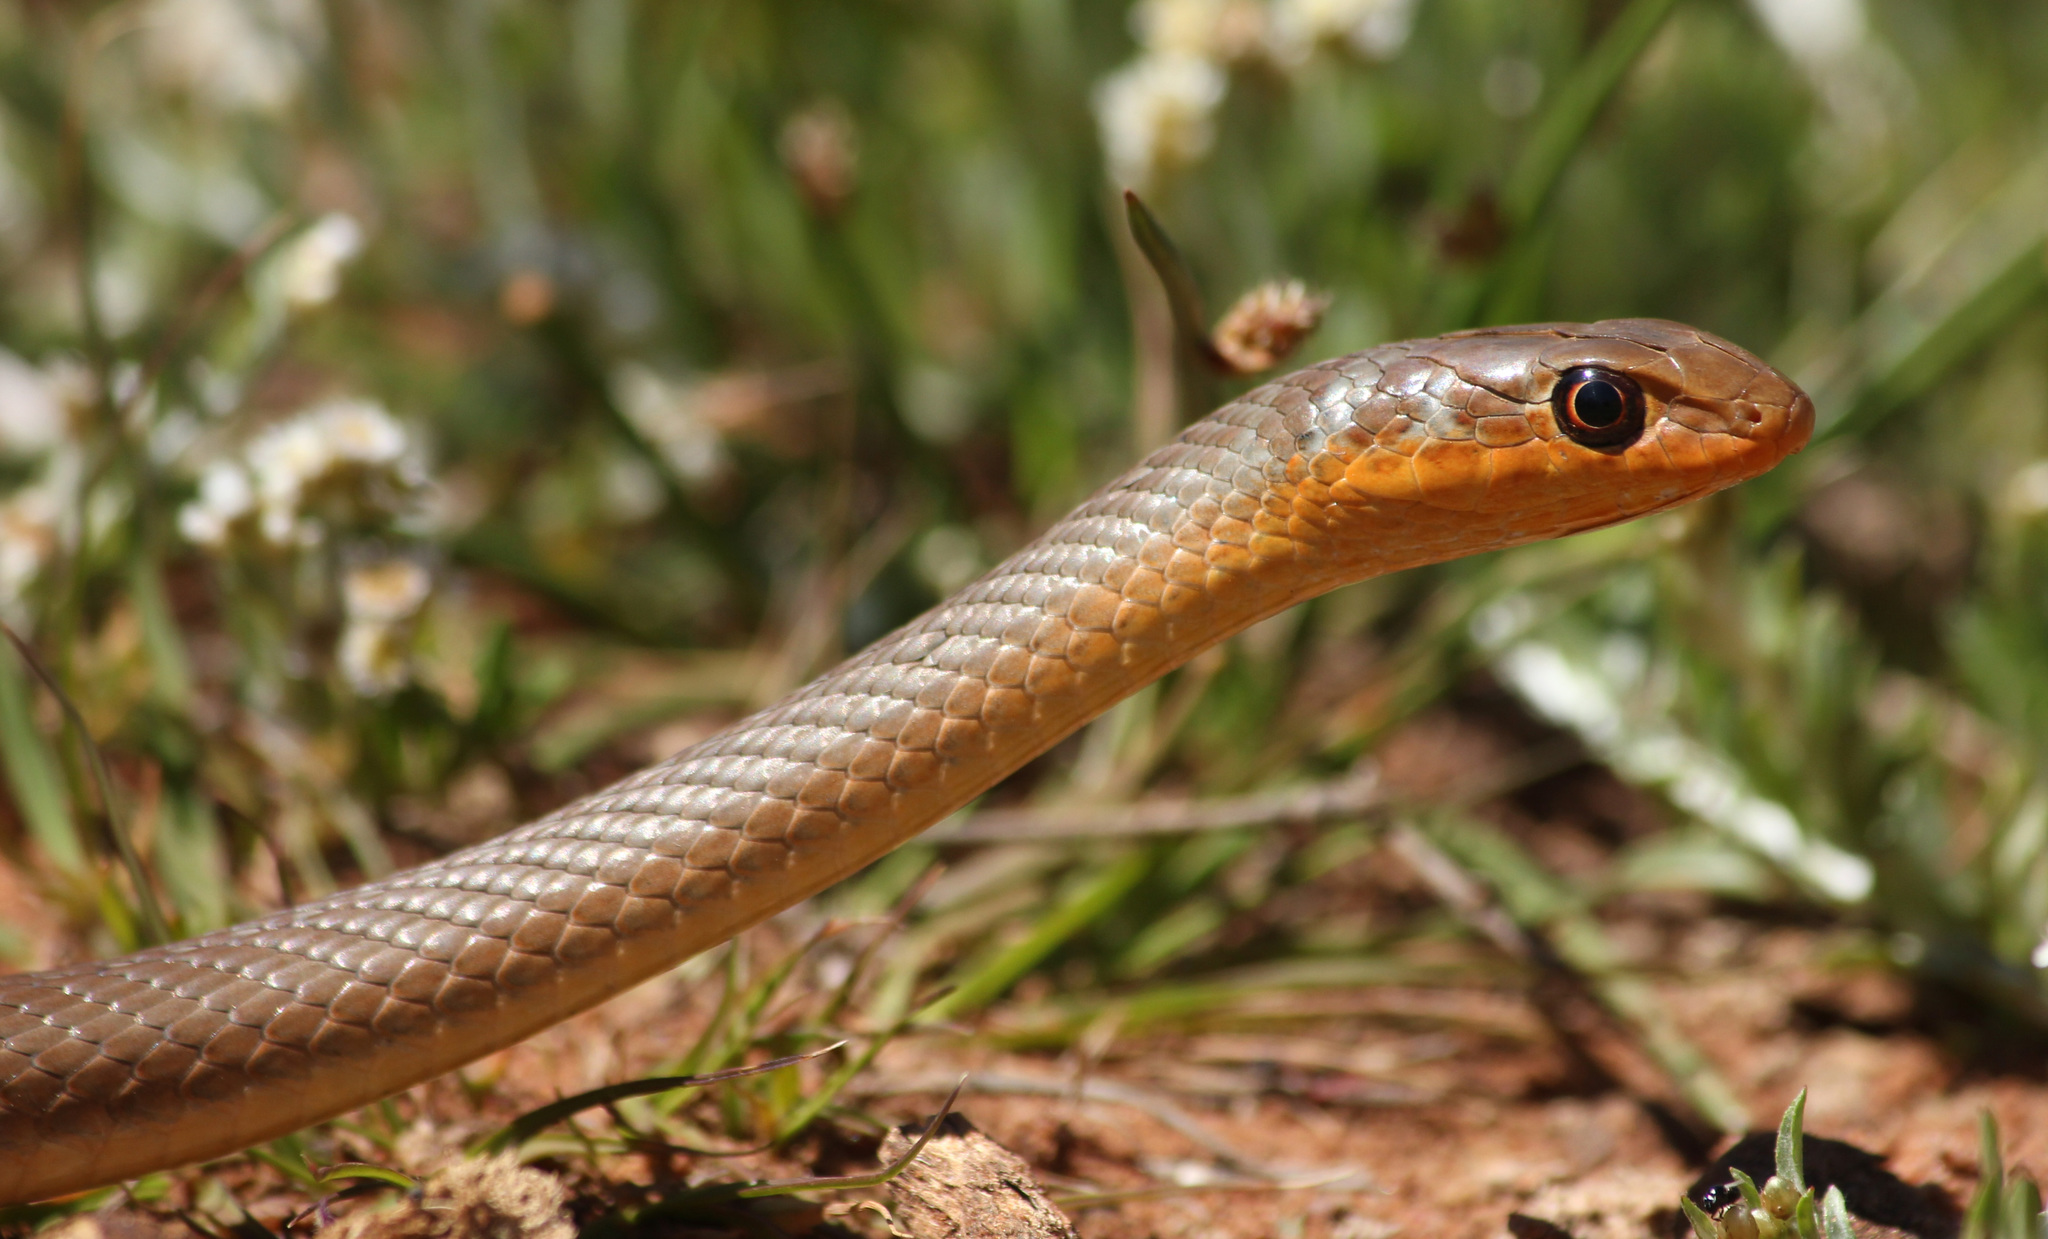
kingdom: Animalia
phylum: Chordata
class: Squamata
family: Psammophiidae
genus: Psammophis
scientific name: Psammophis brevirostris
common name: Short-snouted grass snake
